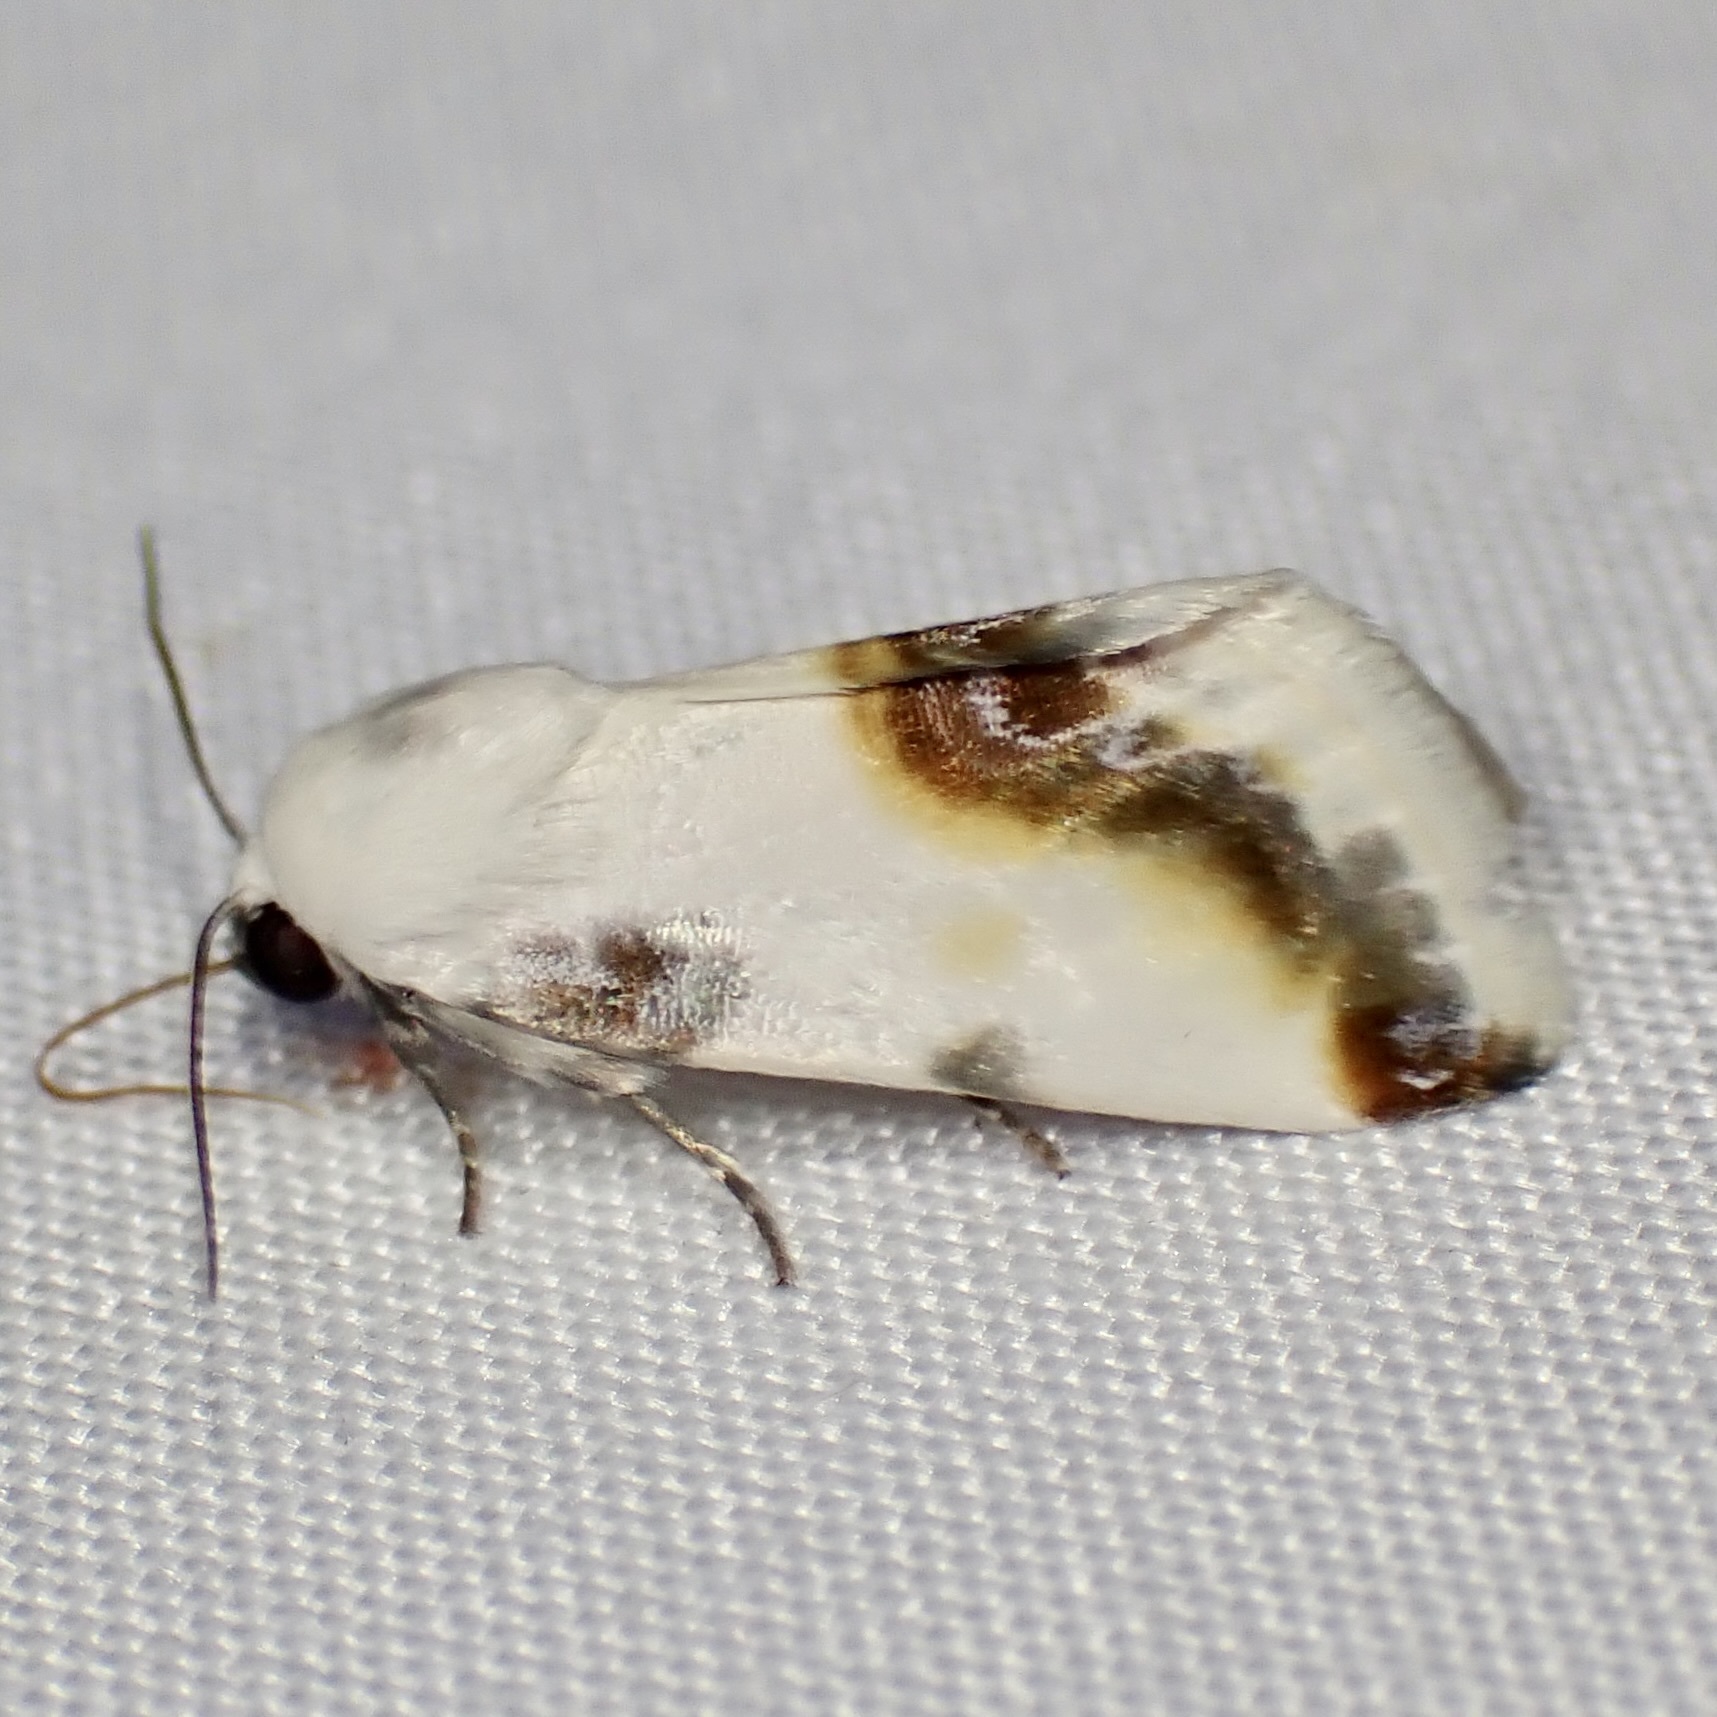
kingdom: Animalia
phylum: Arthropoda
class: Insecta
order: Lepidoptera
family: Noctuidae
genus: Acontia
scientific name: Acontia chea
